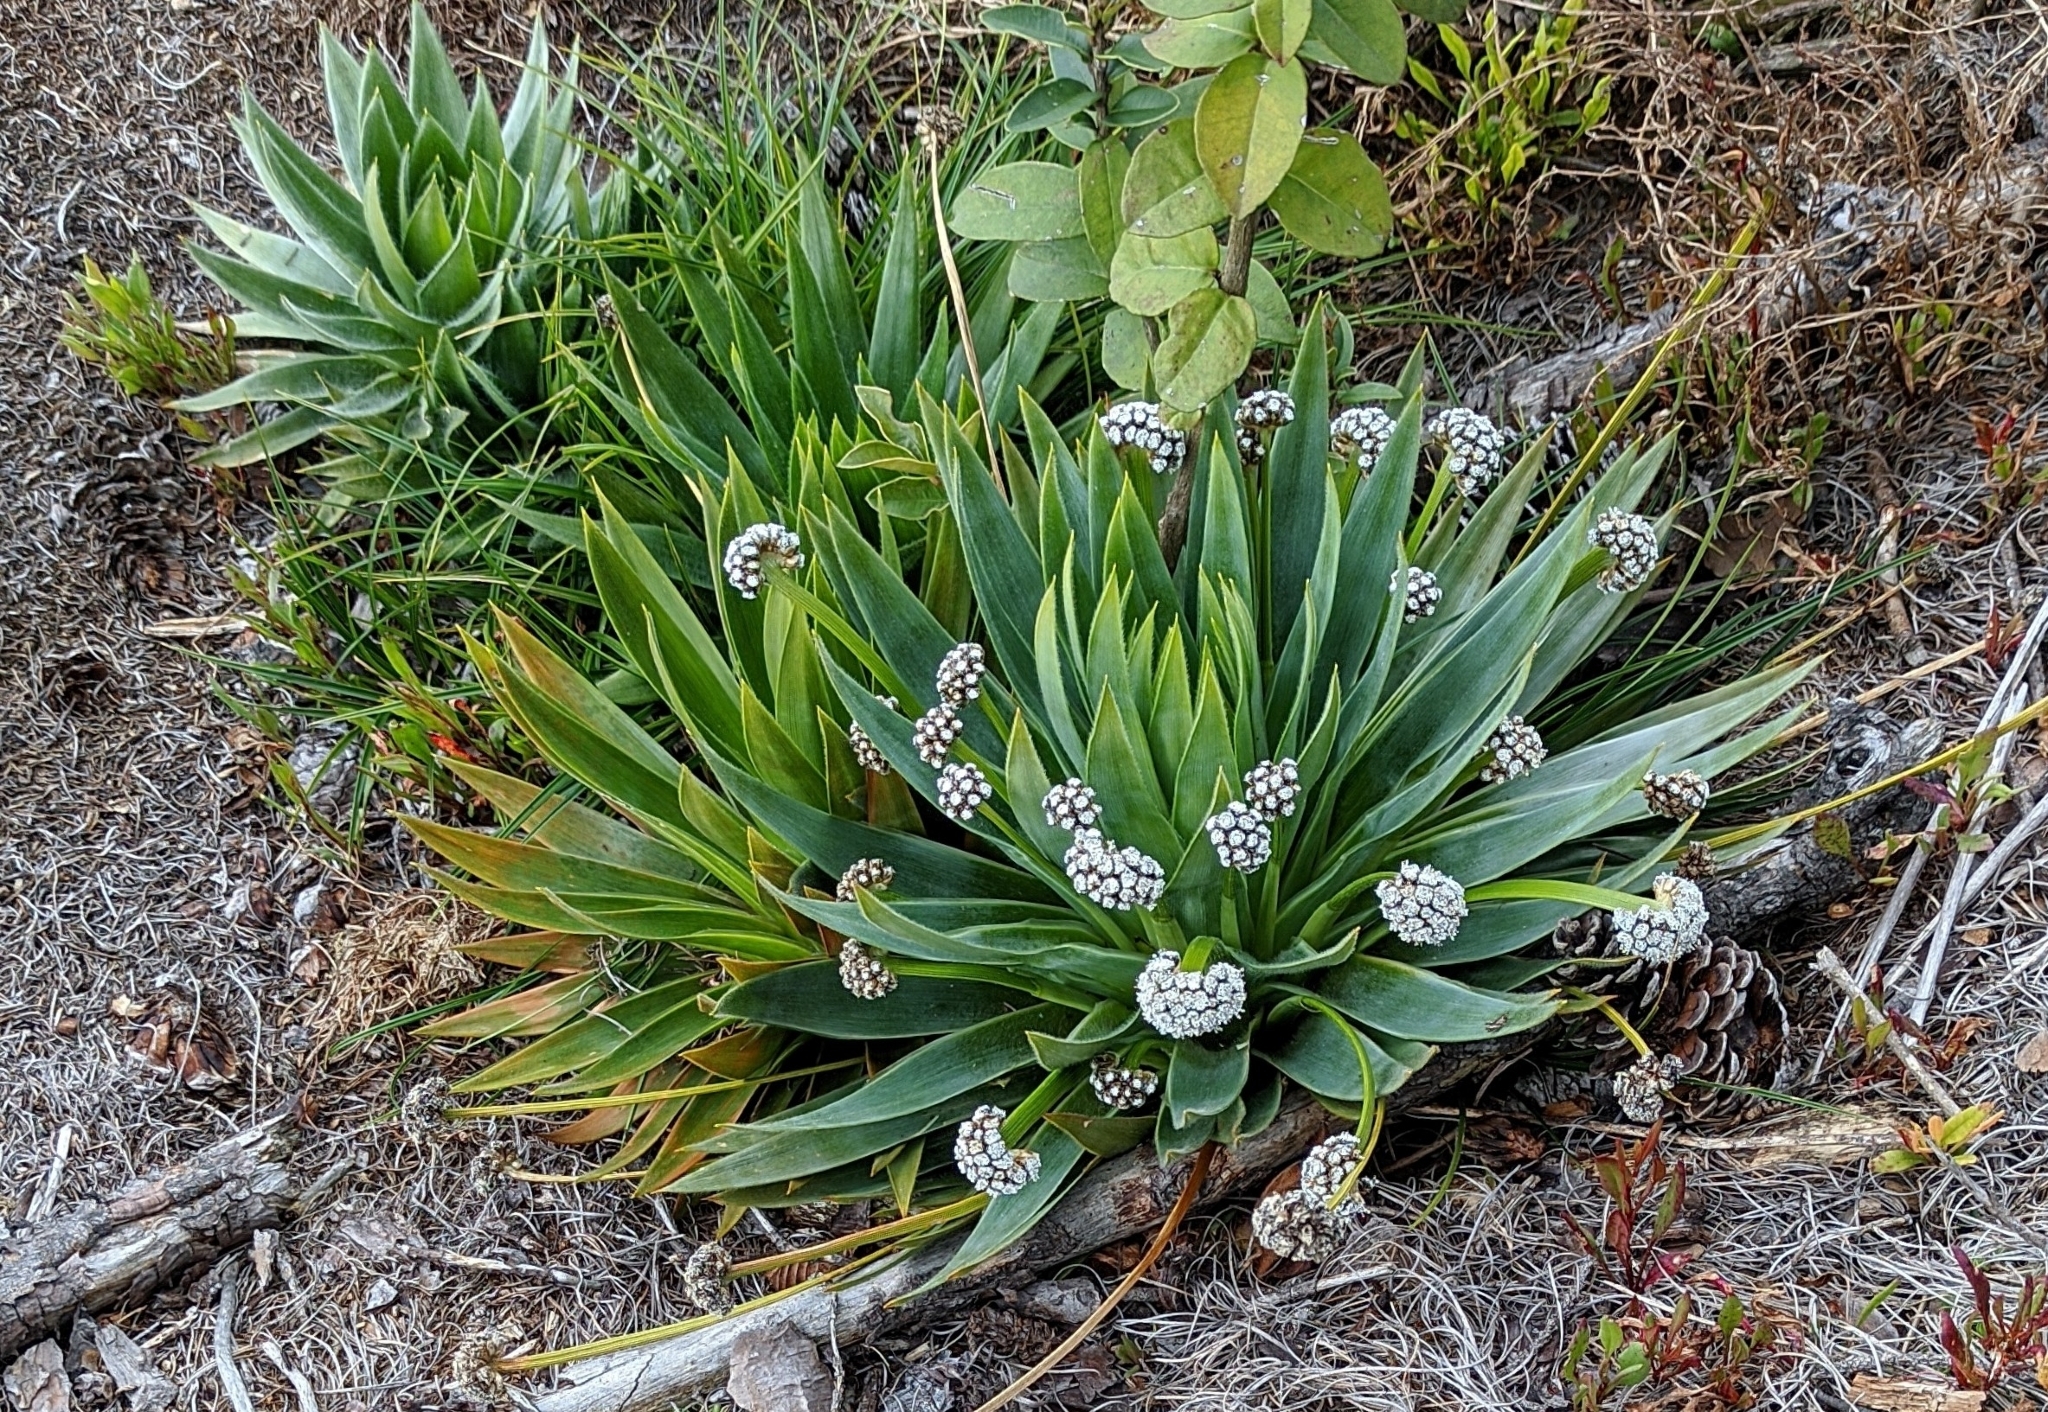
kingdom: Plantae
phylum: Tracheophyta
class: Liliopsida
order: Poales
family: Eriocaulaceae
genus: Paepalanthus
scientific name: Paepalanthus alpinus
